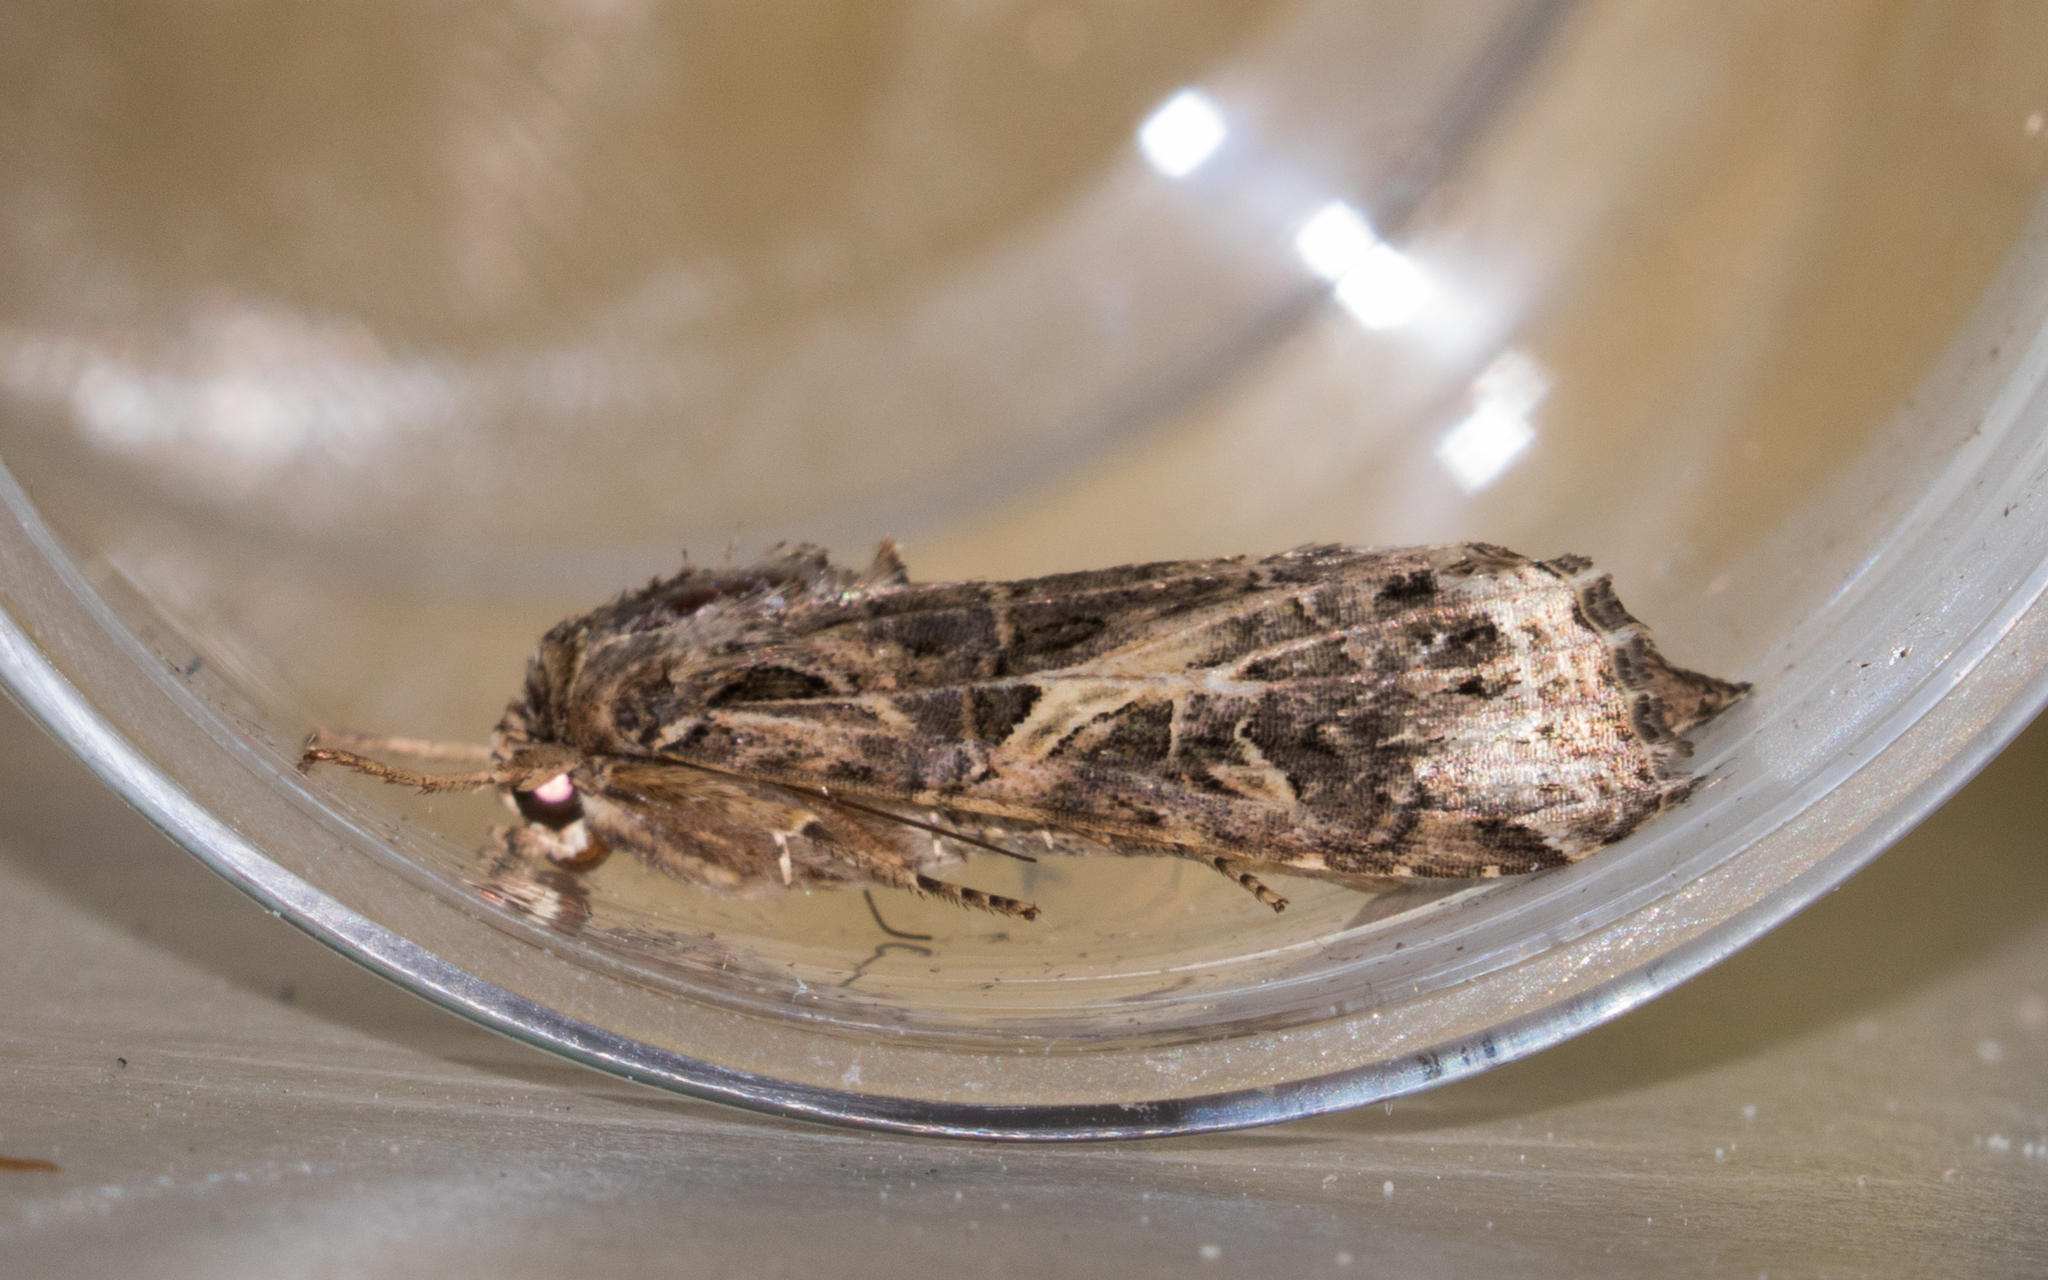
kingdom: Animalia
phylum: Arthropoda
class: Insecta
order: Lepidoptera
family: Noctuidae
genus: Spodoptera
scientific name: Spodoptera ornithogalli
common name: Yellow-striped armyworm
